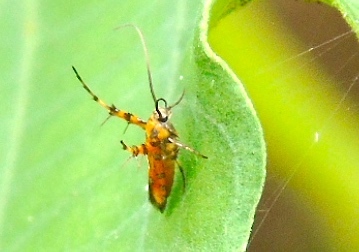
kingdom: Animalia
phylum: Arthropoda
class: Insecta
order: Lepidoptera
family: Heliodinidae
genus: Heliodines
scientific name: Heliodines
